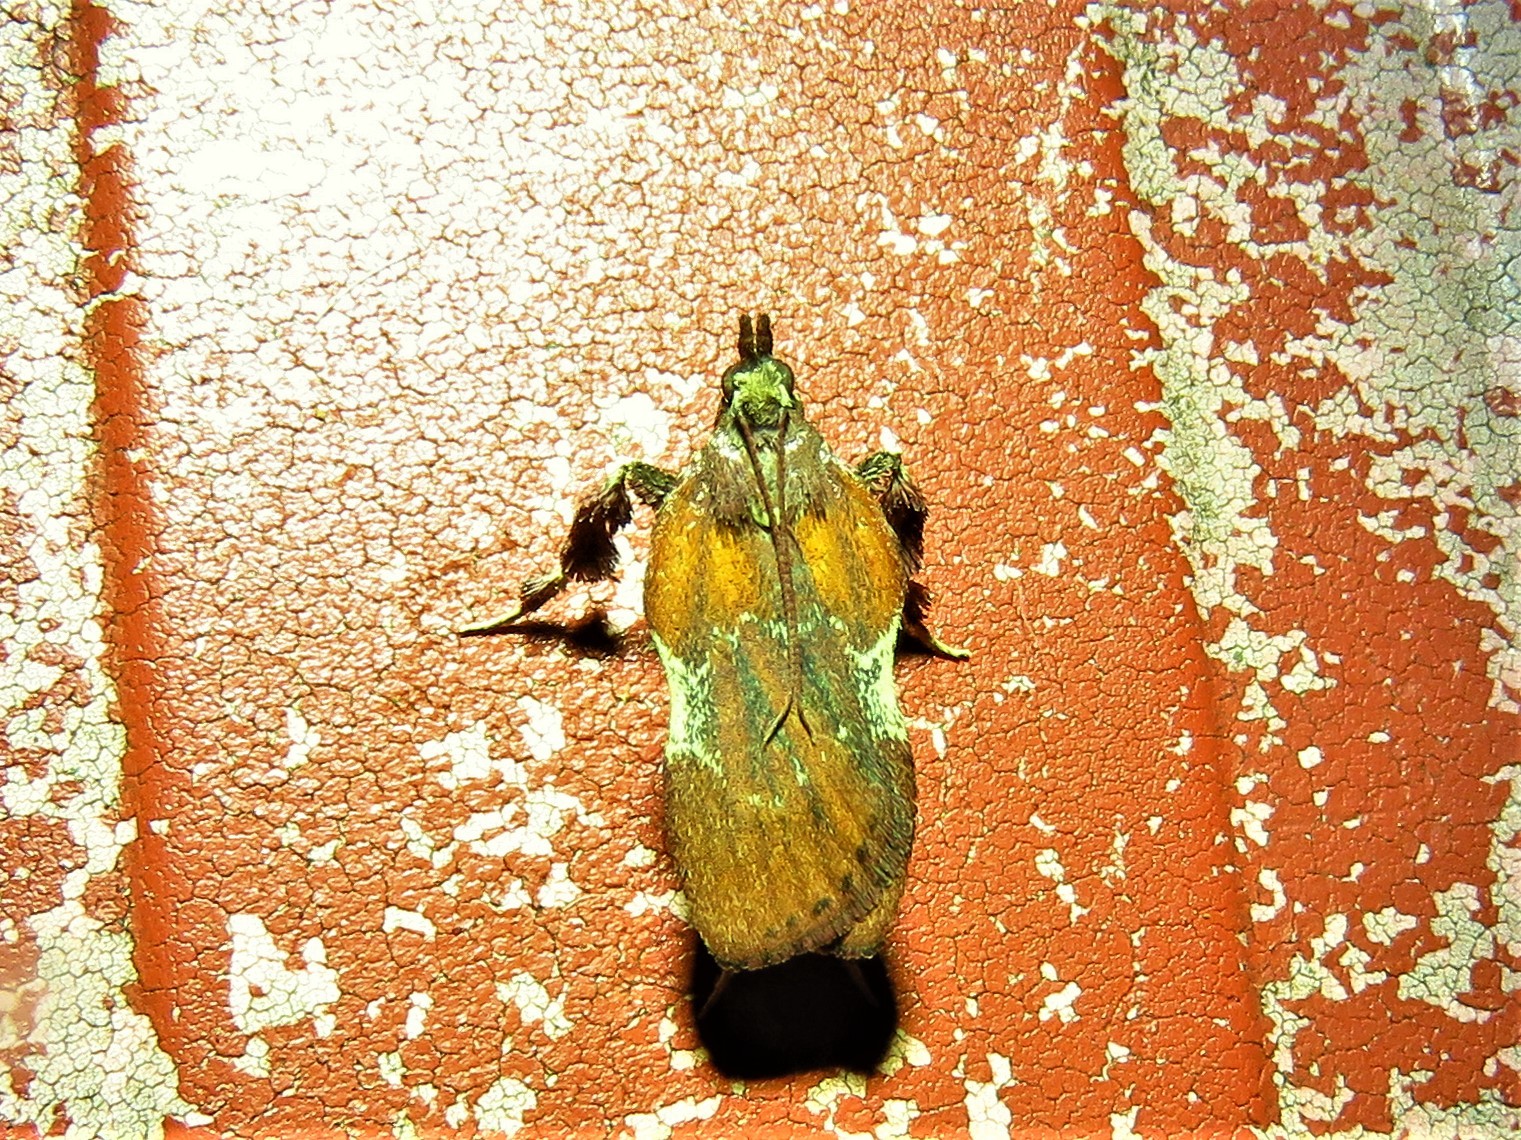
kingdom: Animalia
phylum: Arthropoda
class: Insecta
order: Lepidoptera
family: Pyralidae
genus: Galasa
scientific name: Galasa nigrinodis
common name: Boxwood leaftier moth
